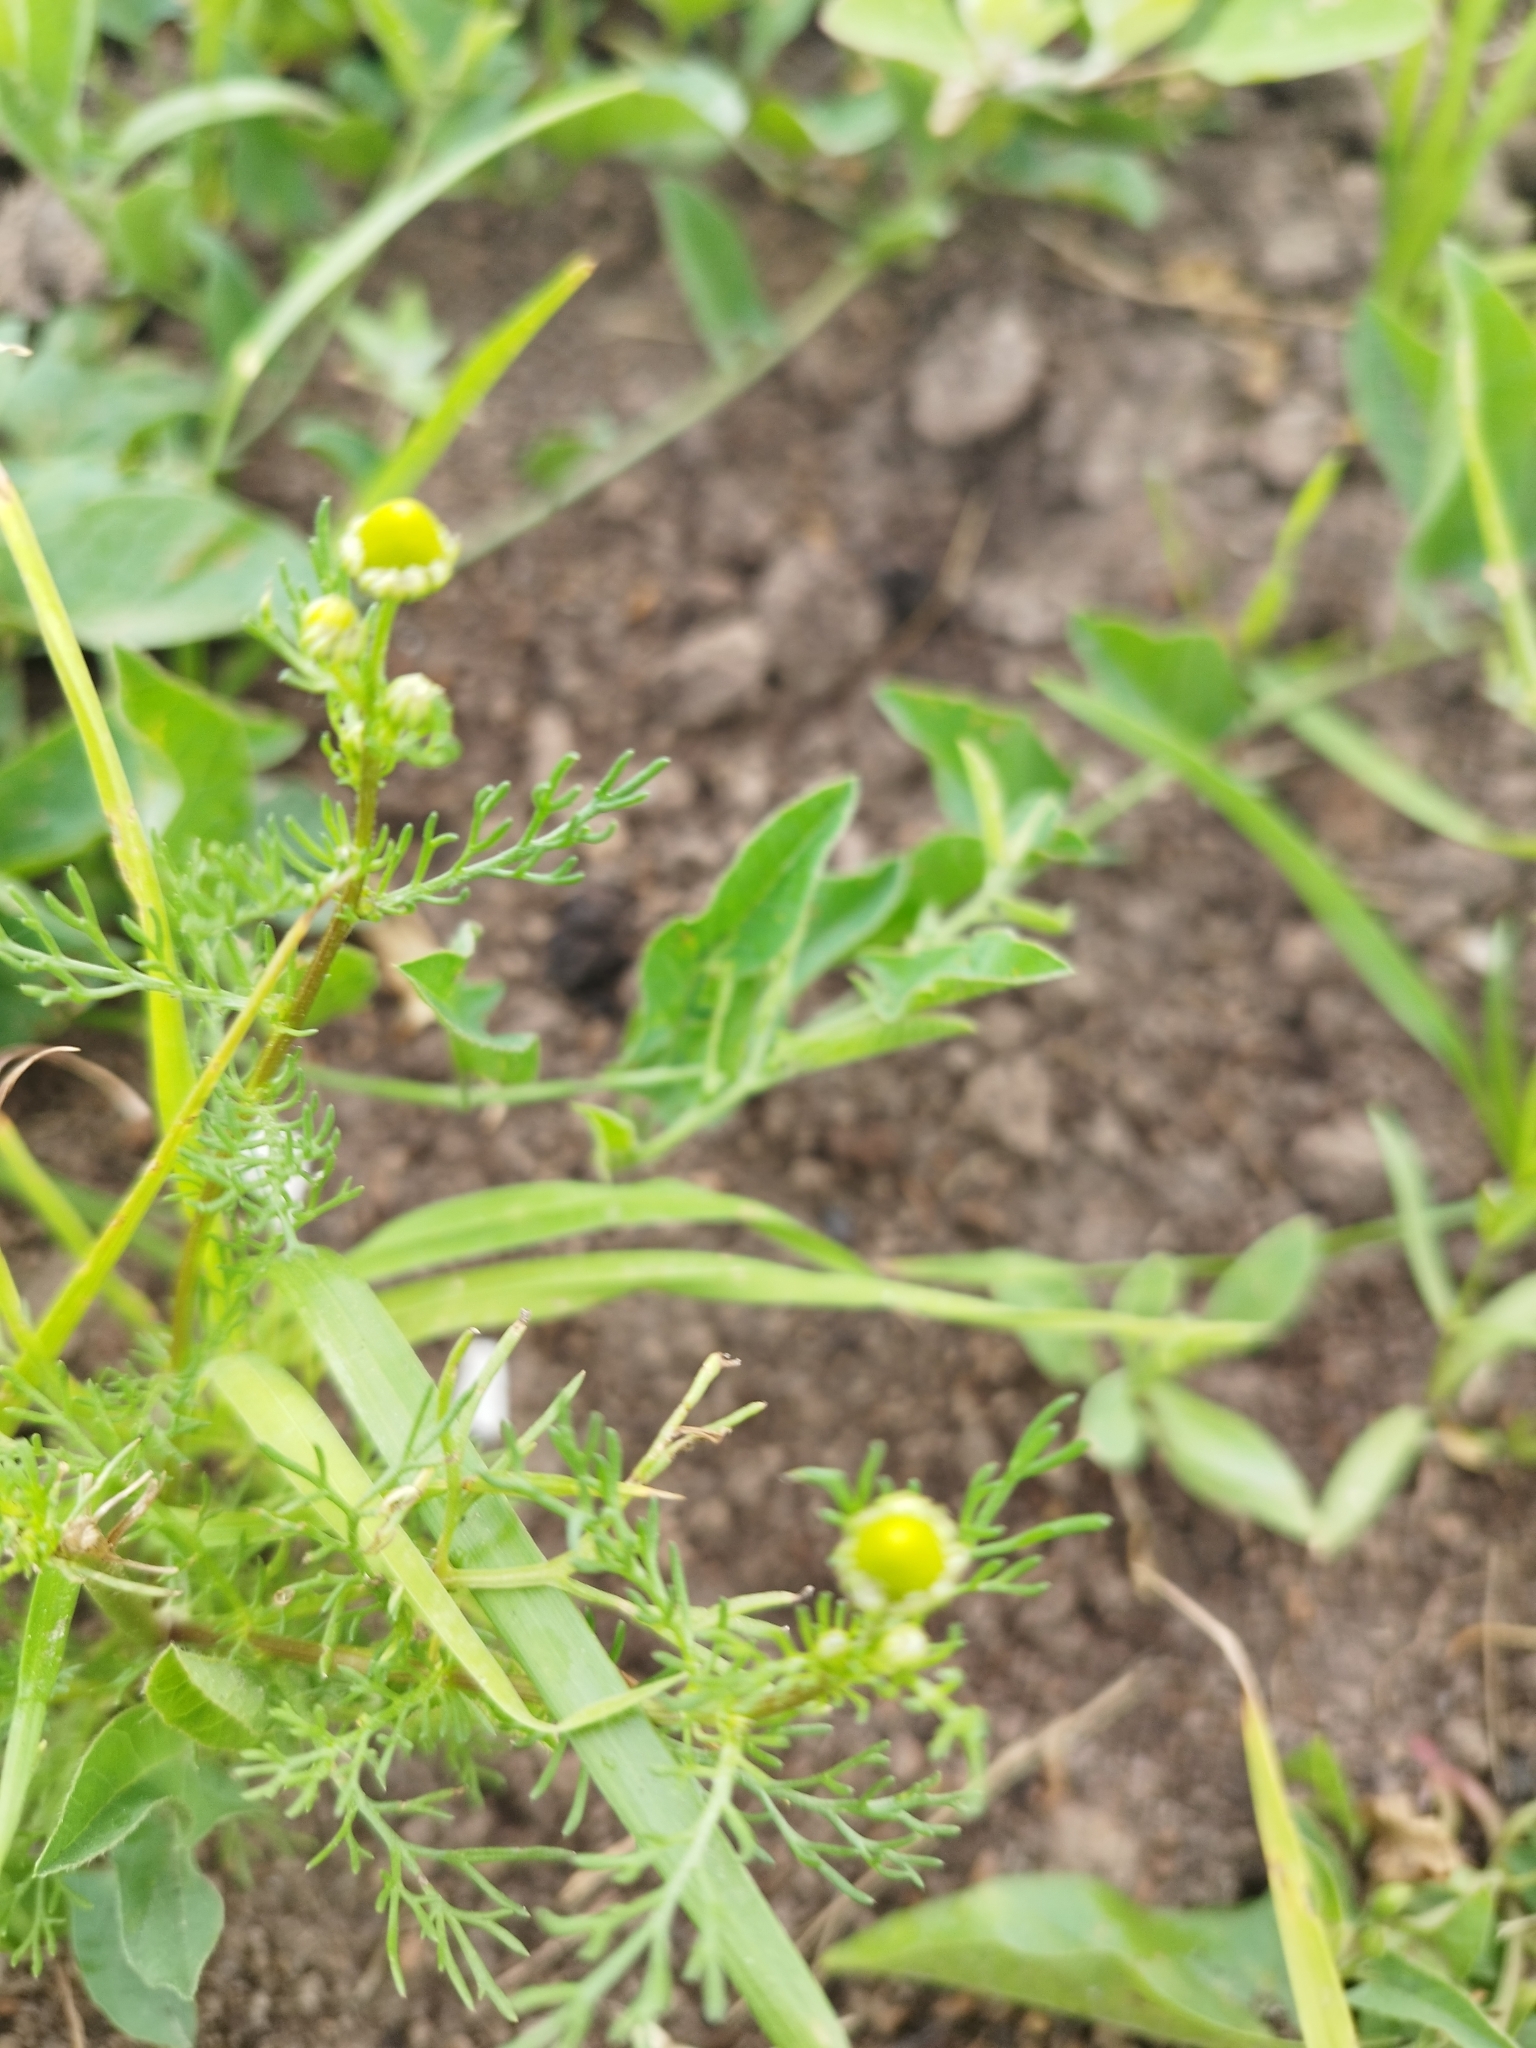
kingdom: Plantae
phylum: Tracheophyta
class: Magnoliopsida
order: Asterales
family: Asteraceae
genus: Matricaria
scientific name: Matricaria discoidea
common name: Disc mayweed
